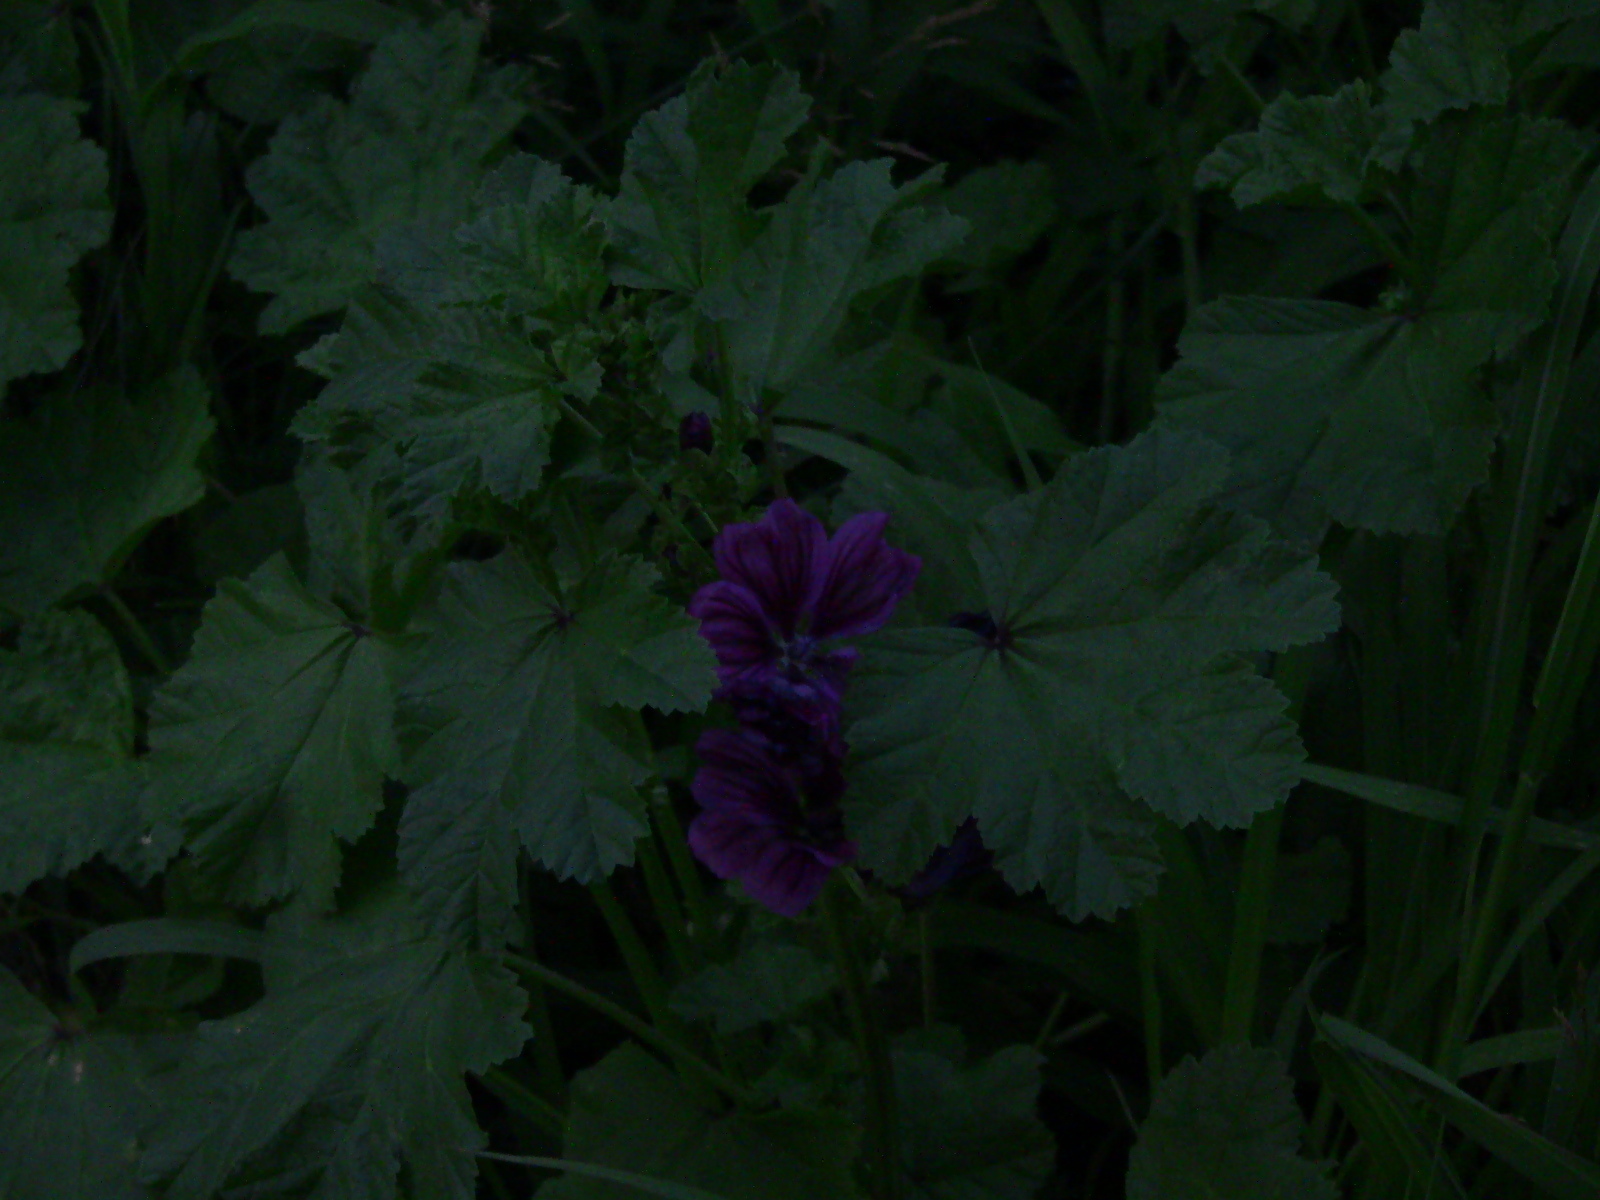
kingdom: Plantae
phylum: Tracheophyta
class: Magnoliopsida
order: Malvales
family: Malvaceae
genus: Malva
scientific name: Malva sylvestris
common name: Common mallow
